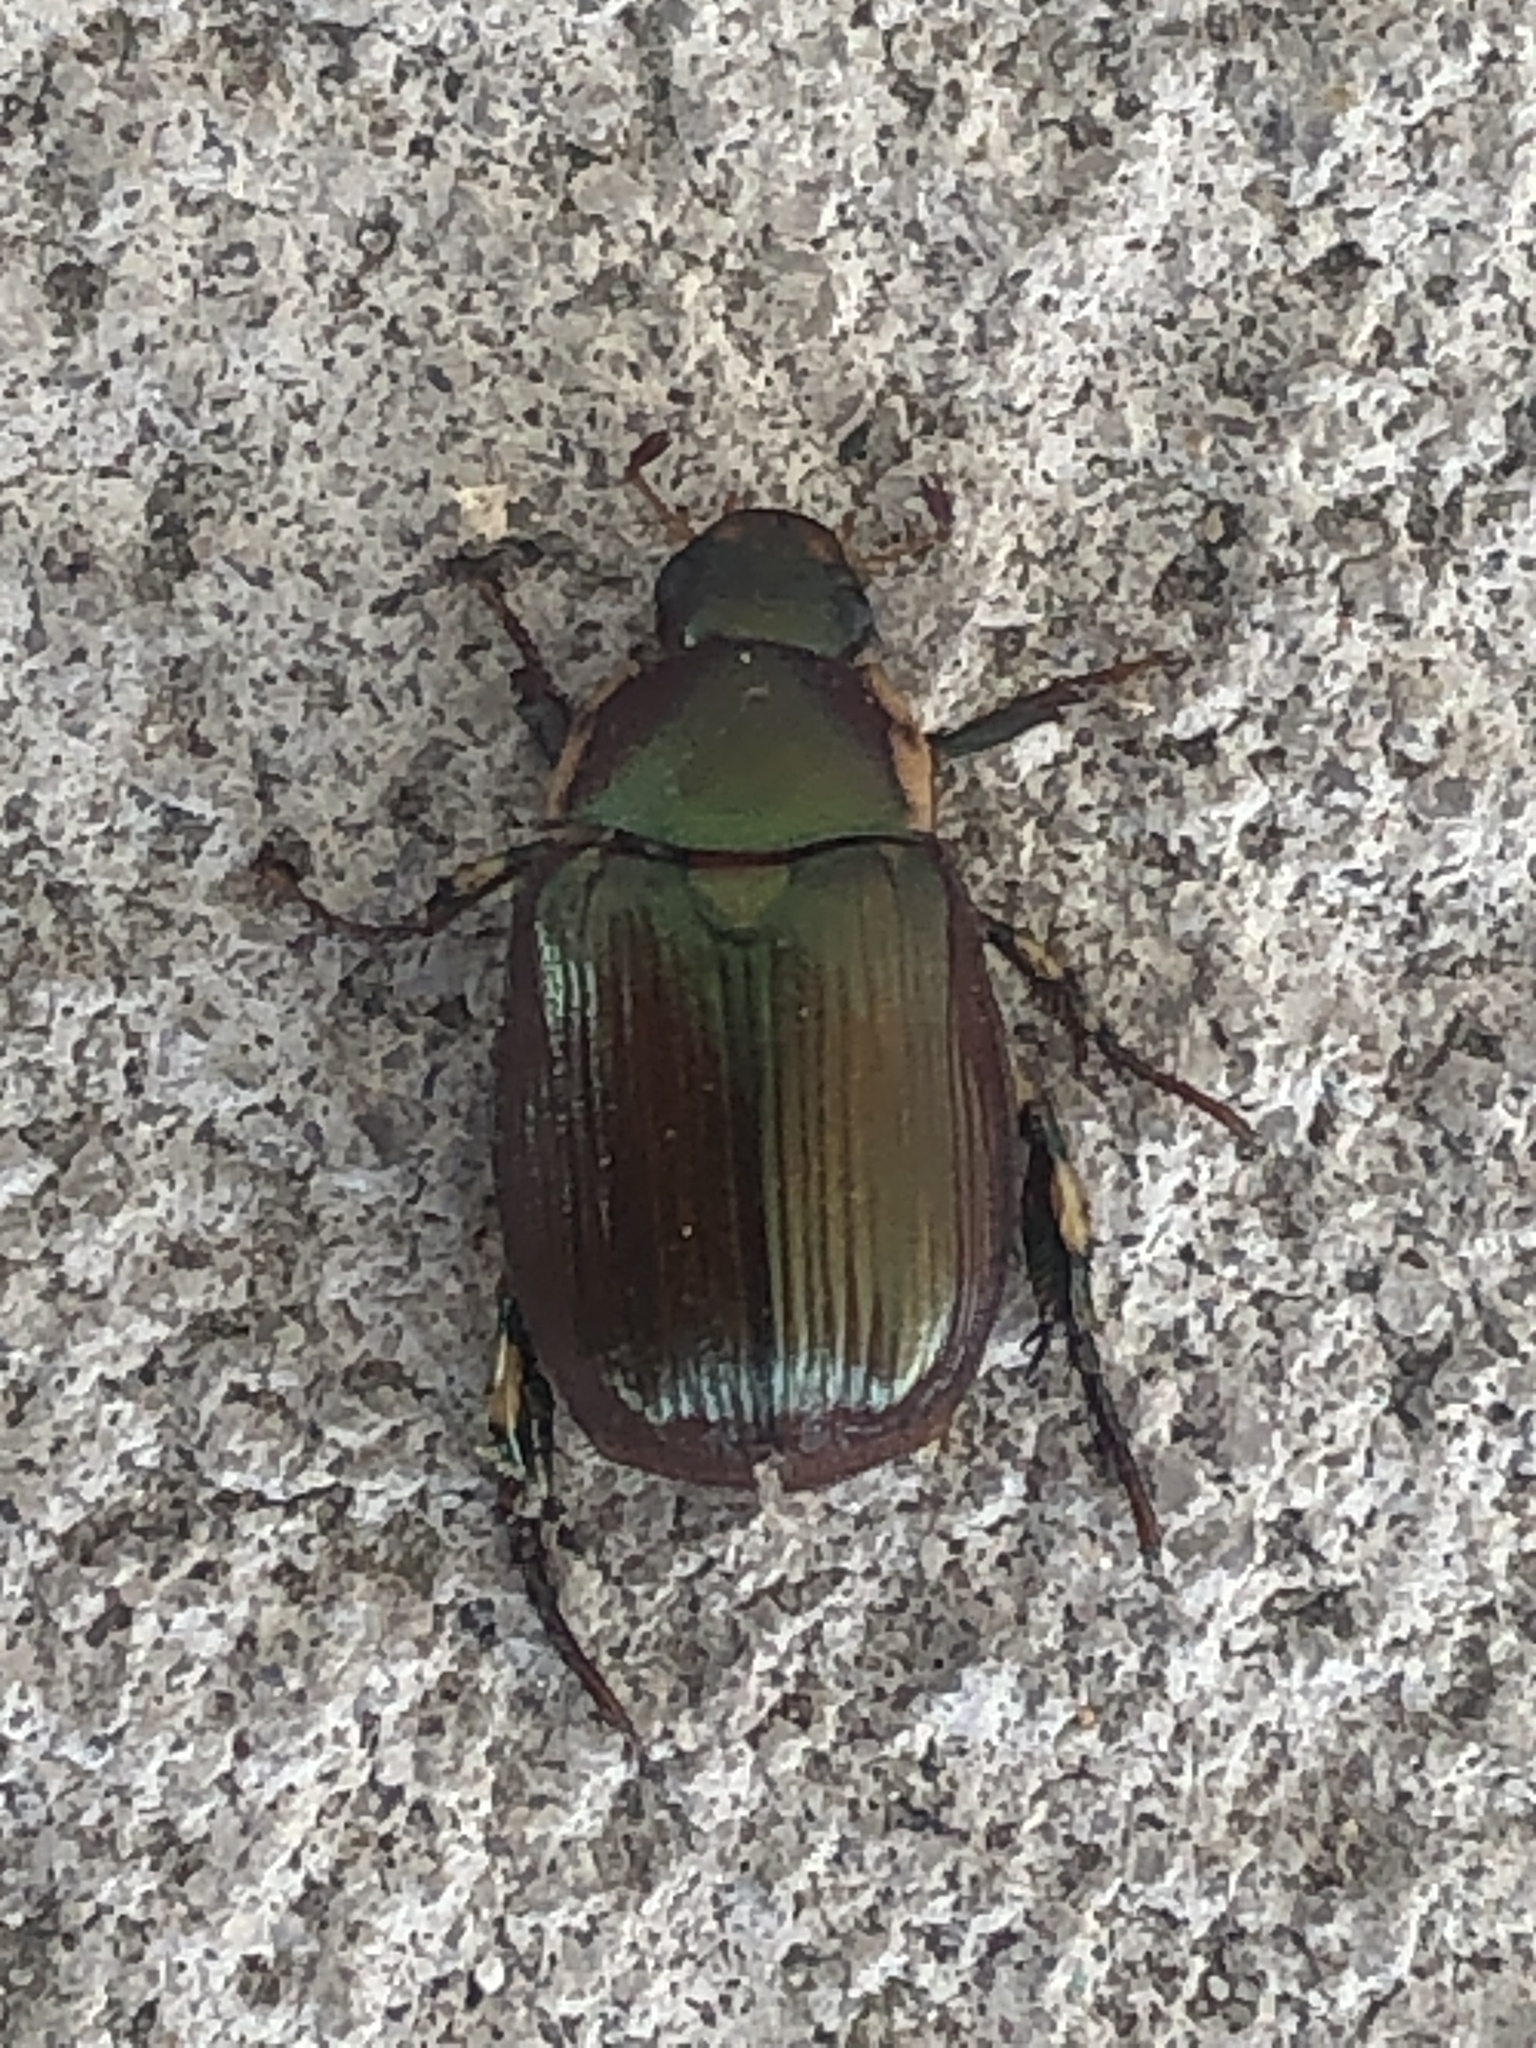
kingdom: Animalia
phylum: Arthropoda
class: Insecta
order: Coleoptera
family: Scarabaeidae
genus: Callistethus
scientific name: Callistethus marginatus
